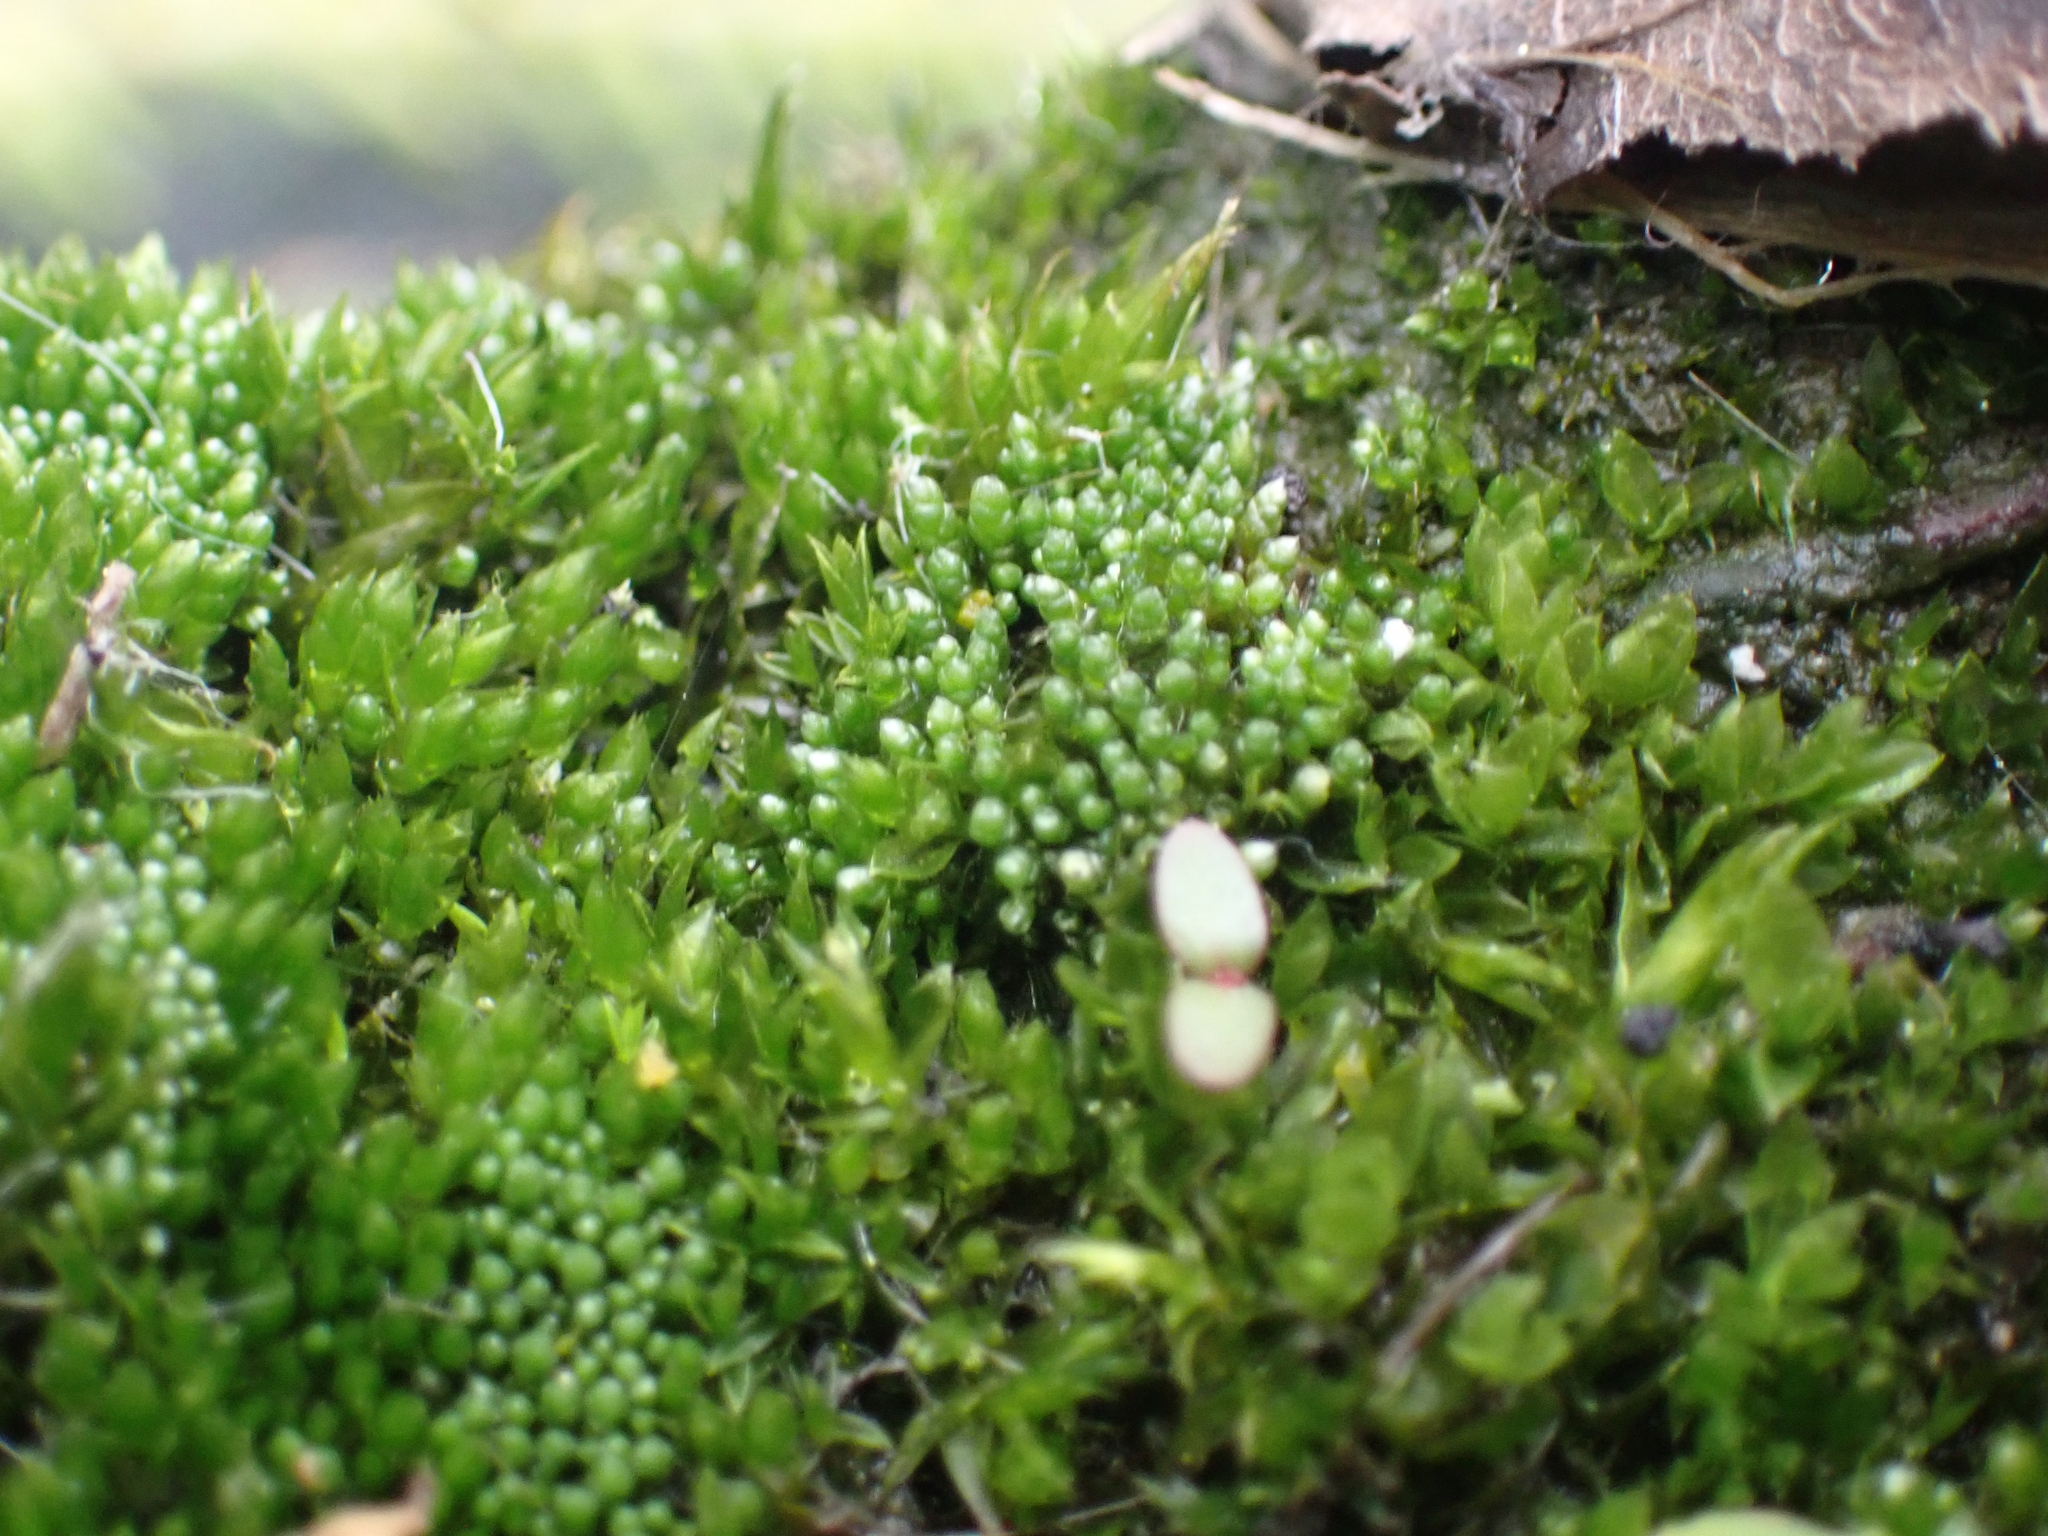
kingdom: Plantae
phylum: Bryophyta
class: Bryopsida
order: Bryales
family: Bryaceae
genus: Bryum
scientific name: Bryum argenteum
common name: Silver-moss
